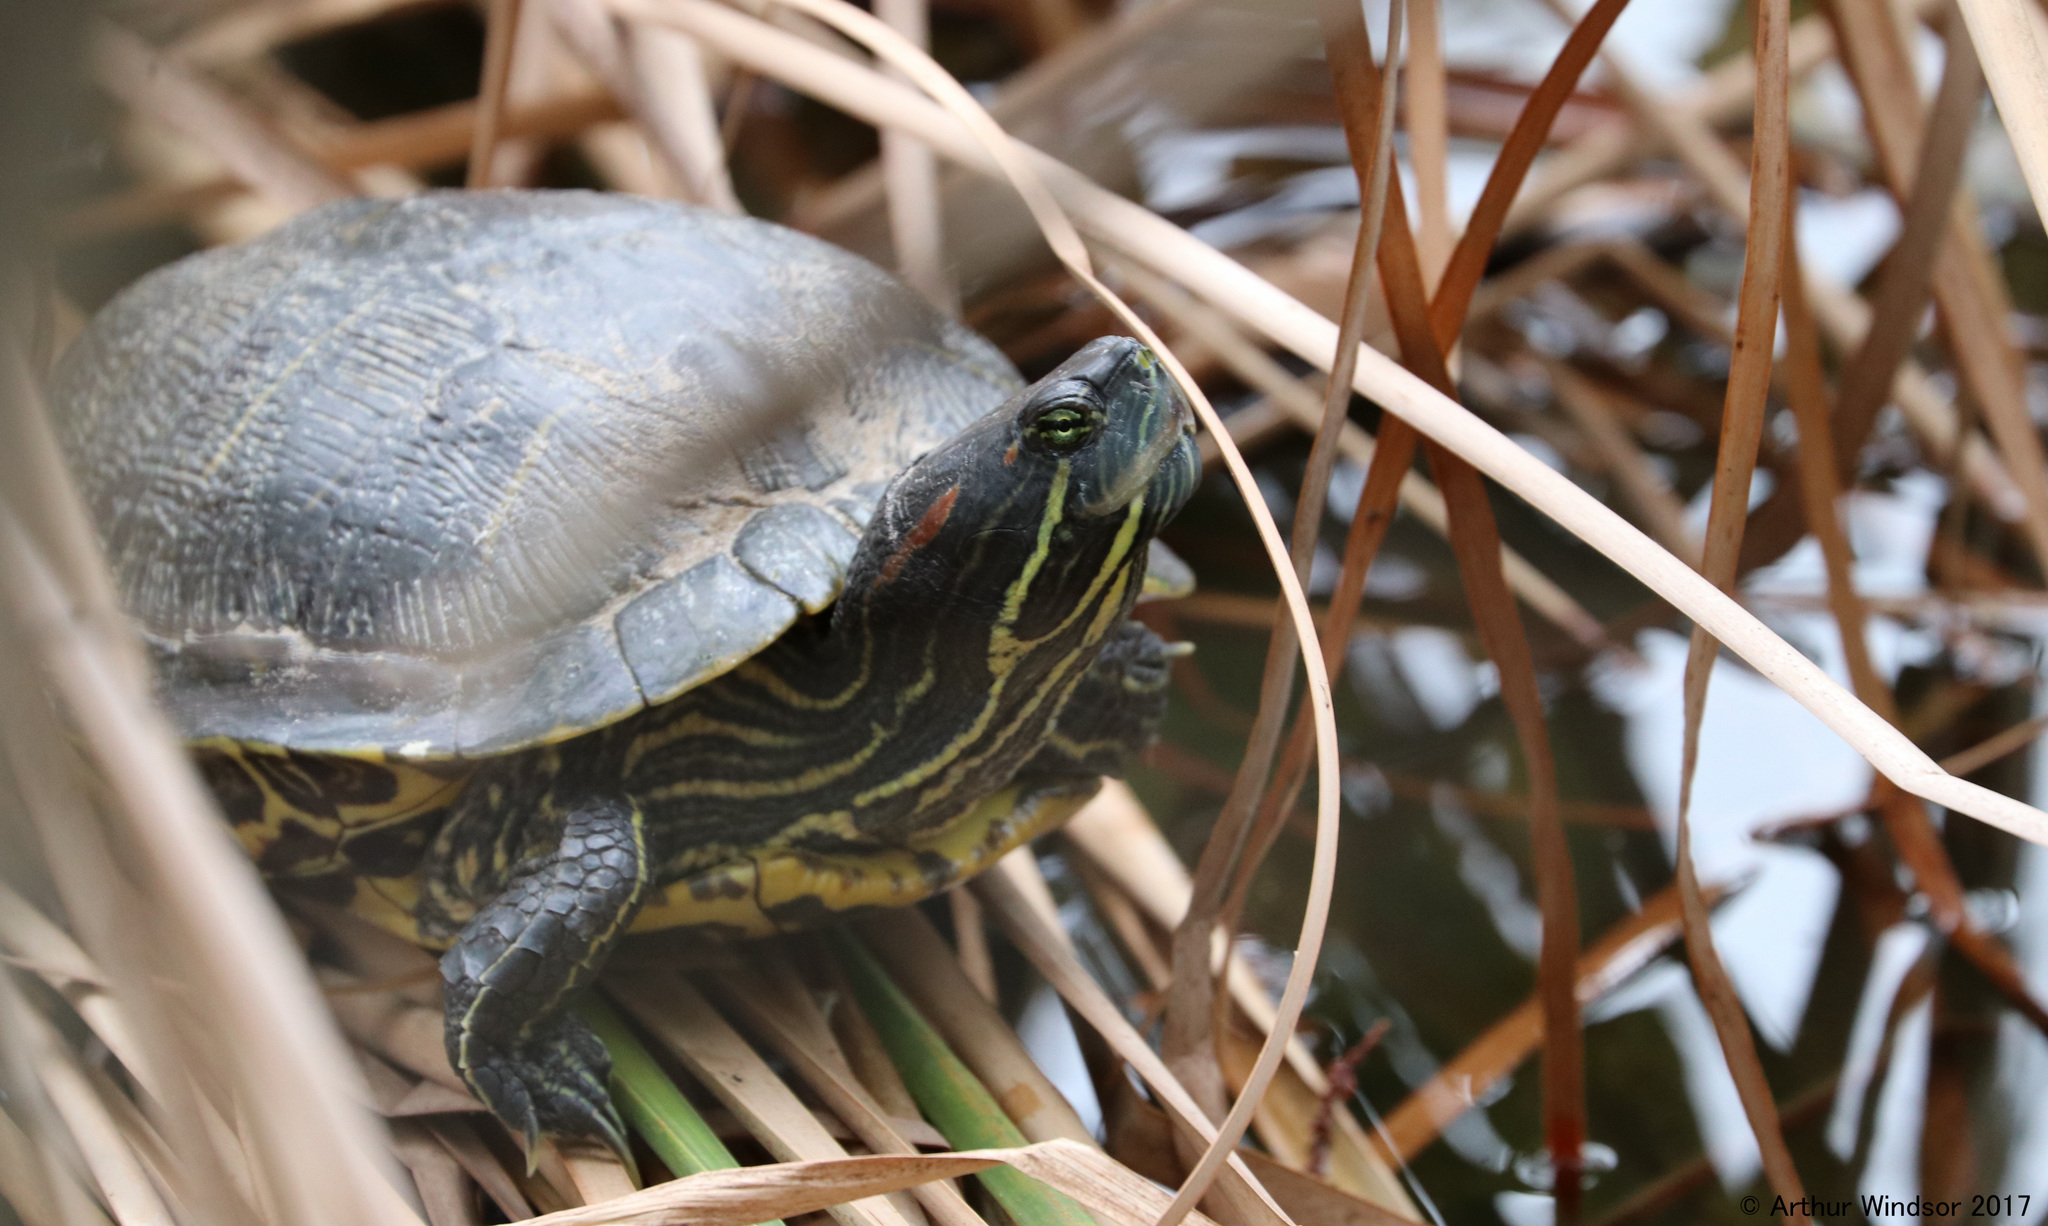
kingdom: Animalia
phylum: Chordata
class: Testudines
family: Emydidae
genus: Trachemys
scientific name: Trachemys scripta
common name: Slider
